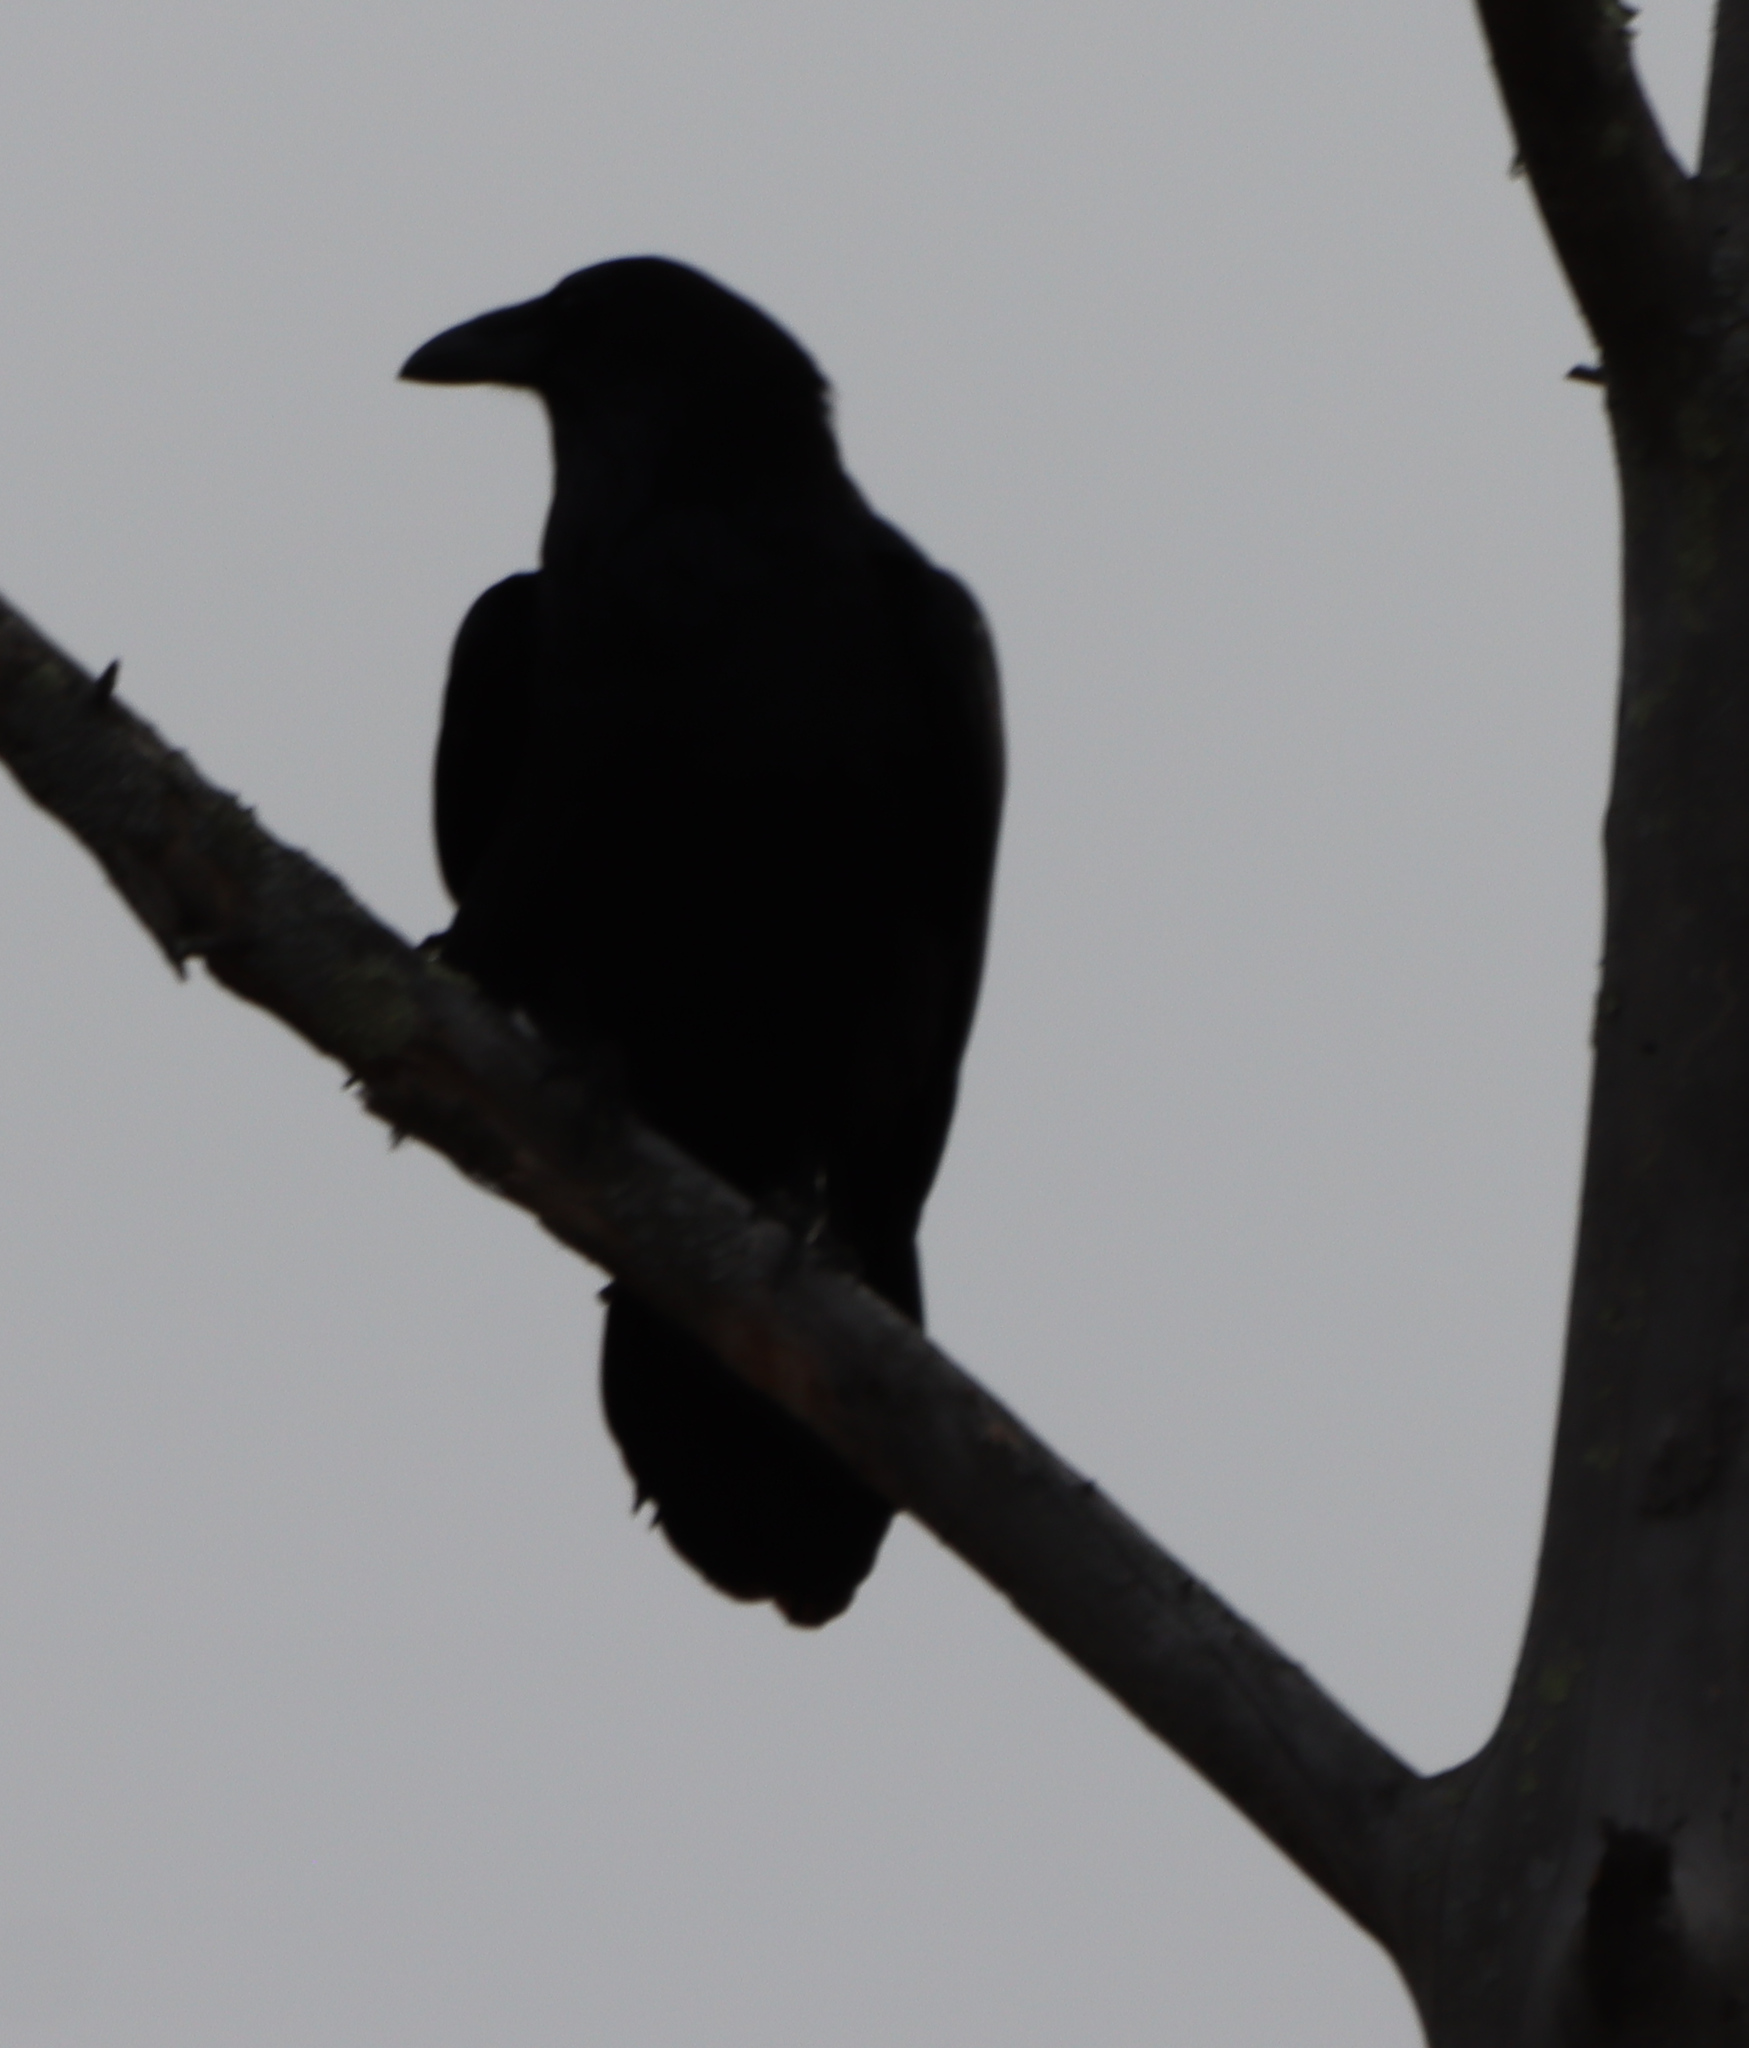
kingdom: Animalia
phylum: Chordata
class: Aves
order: Passeriformes
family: Corvidae
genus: Corvus
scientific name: Corvus corax
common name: Common raven
